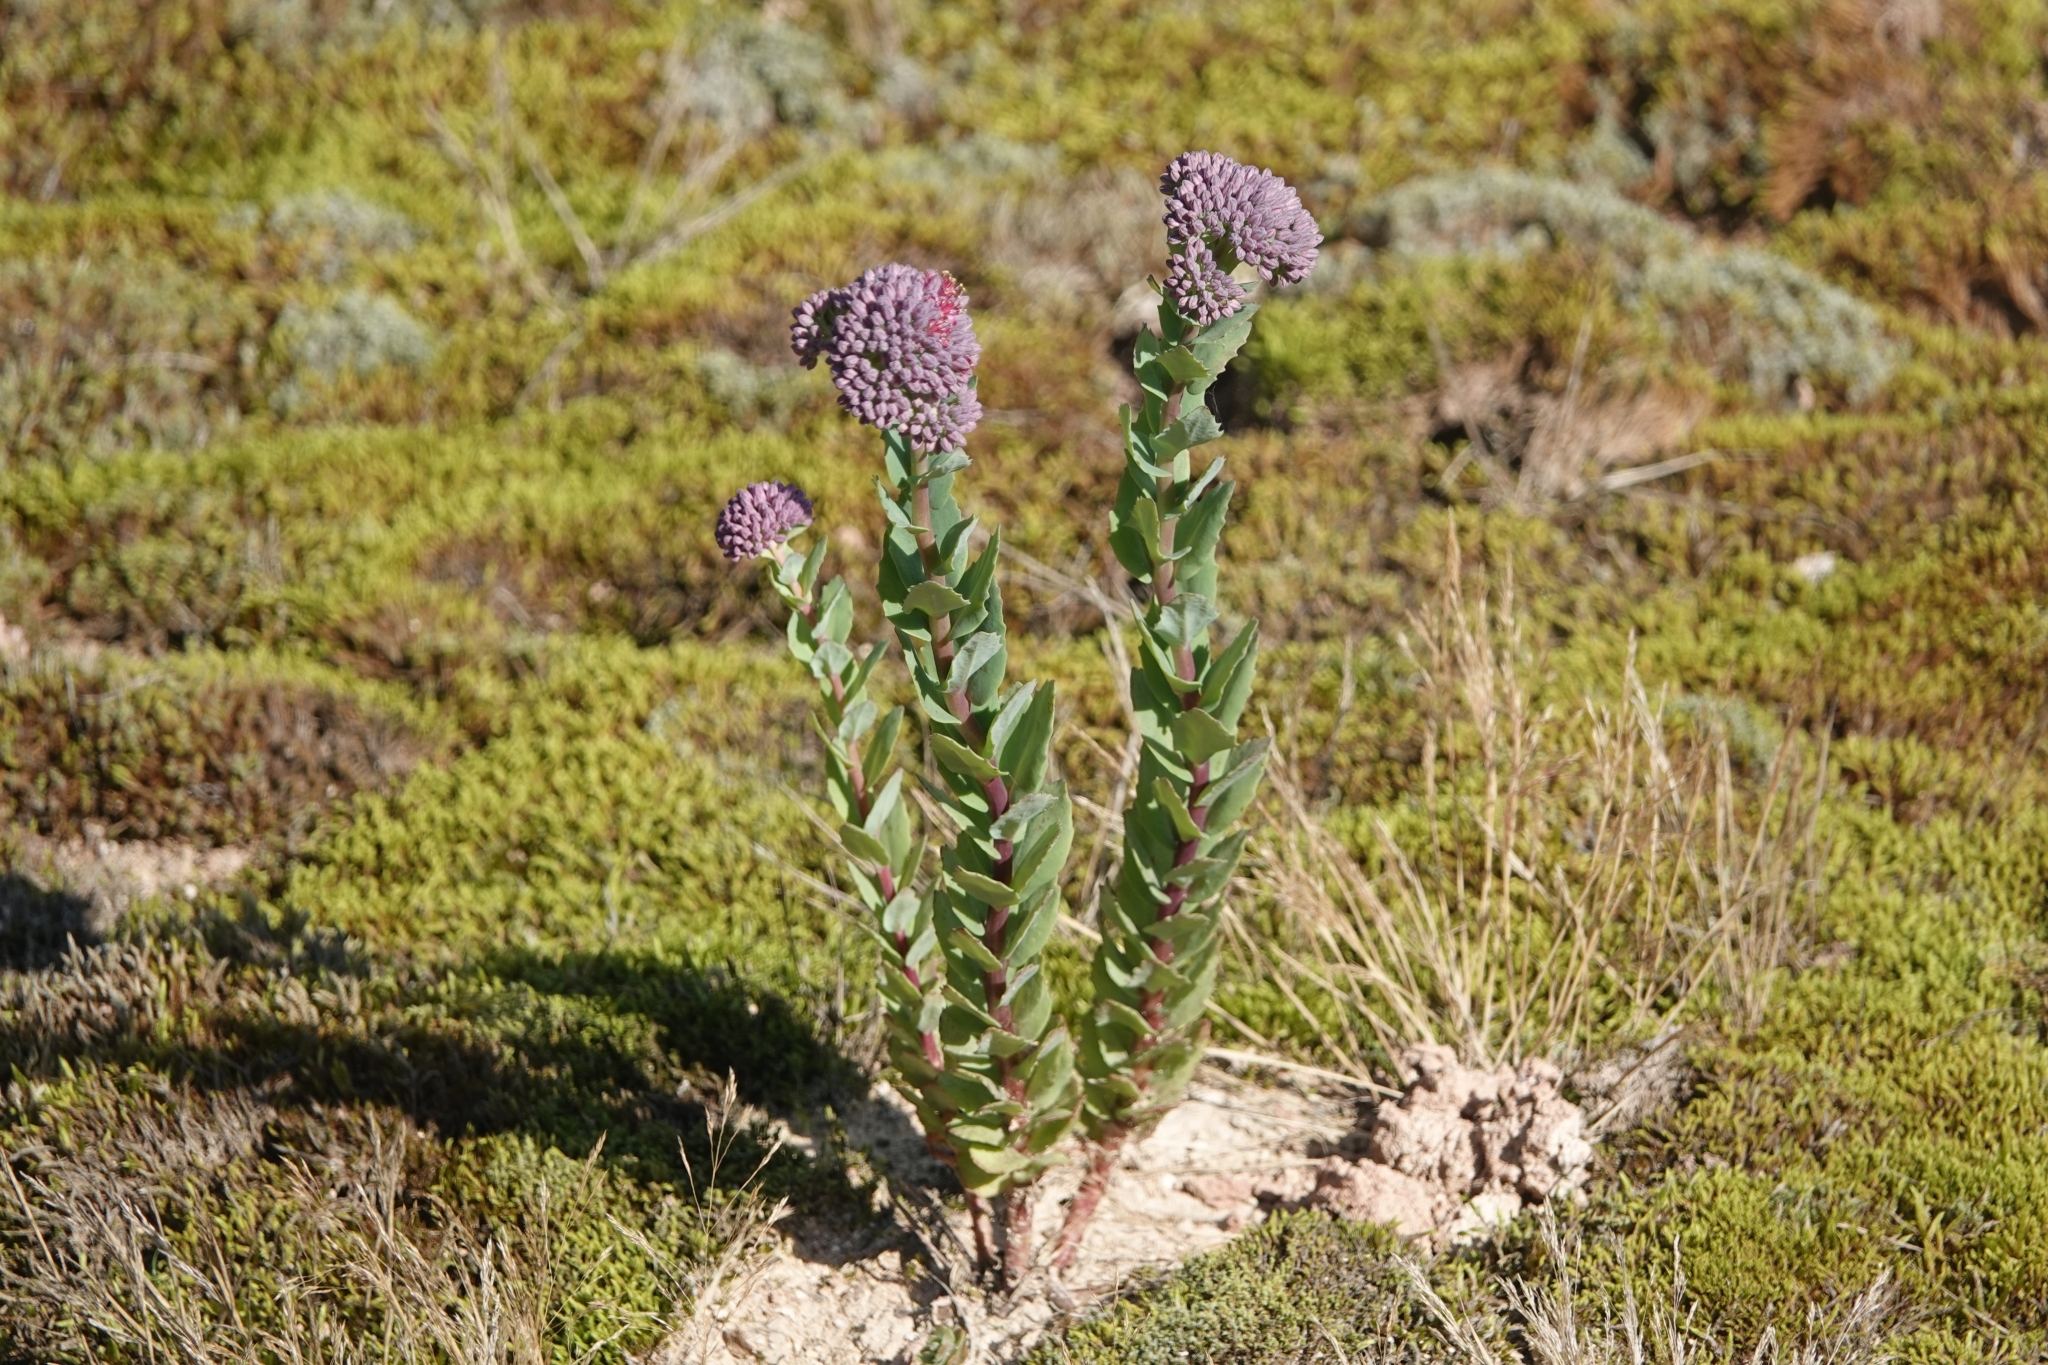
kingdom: Plantae
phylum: Tracheophyta
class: Magnoliopsida
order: Saxifragales
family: Crassulaceae
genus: Hylotelephium
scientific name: Hylotelephium telephium
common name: Live-forever
